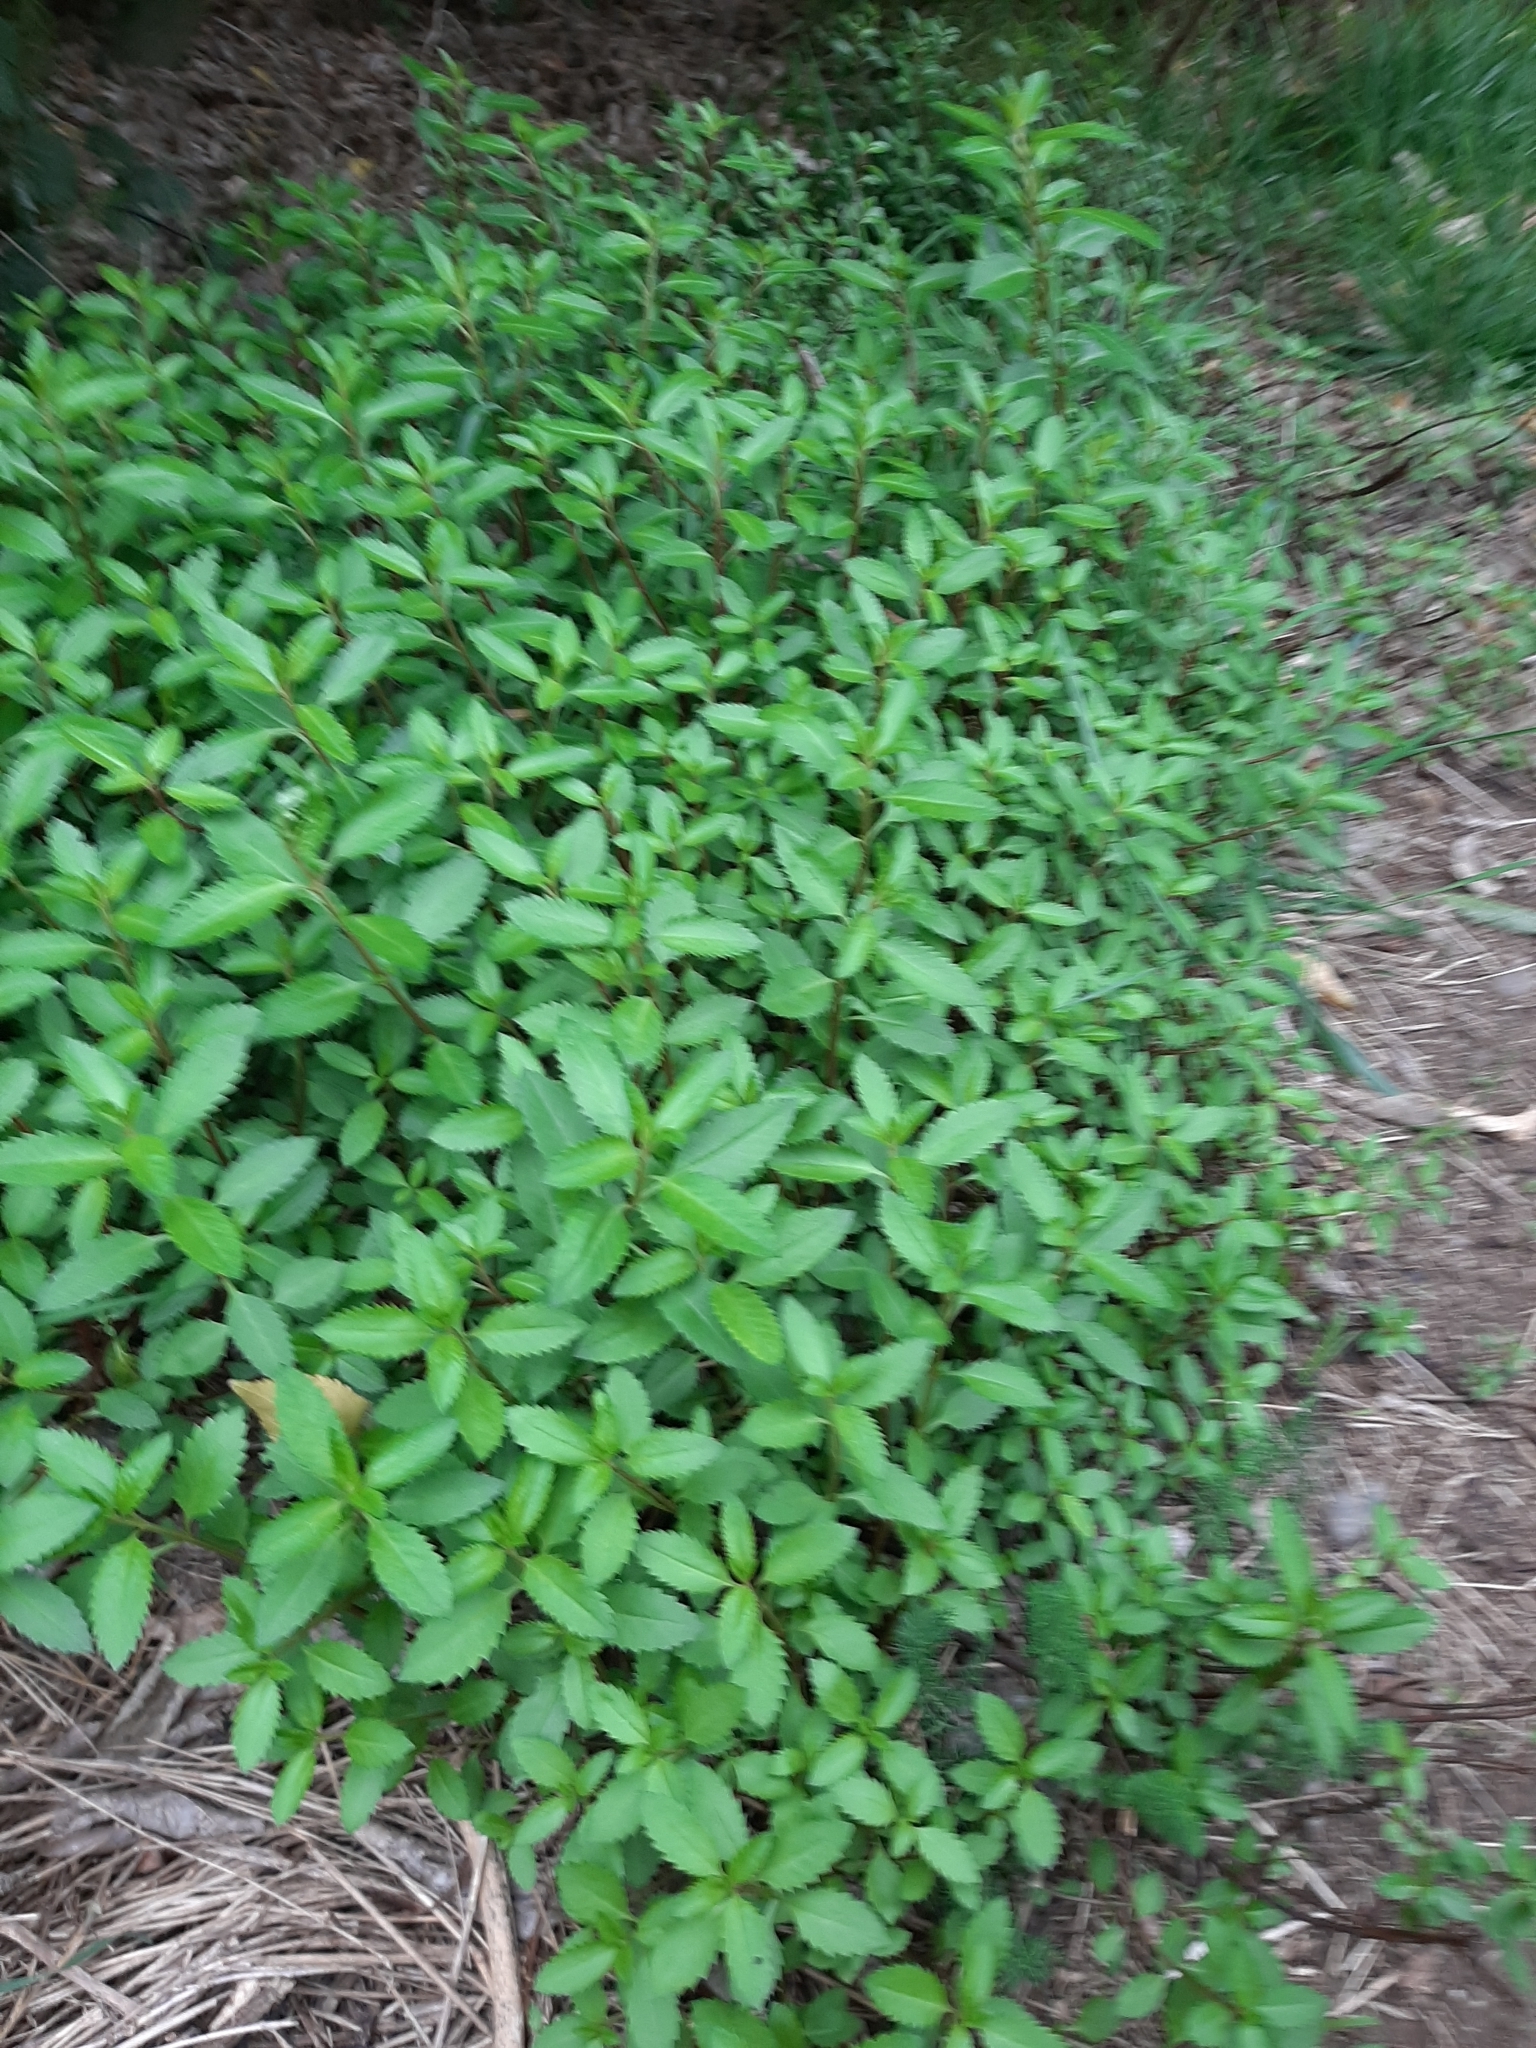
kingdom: Plantae
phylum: Tracheophyta
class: Magnoliopsida
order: Saxifragales
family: Haloragaceae
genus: Haloragis
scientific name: Haloragis erecta
